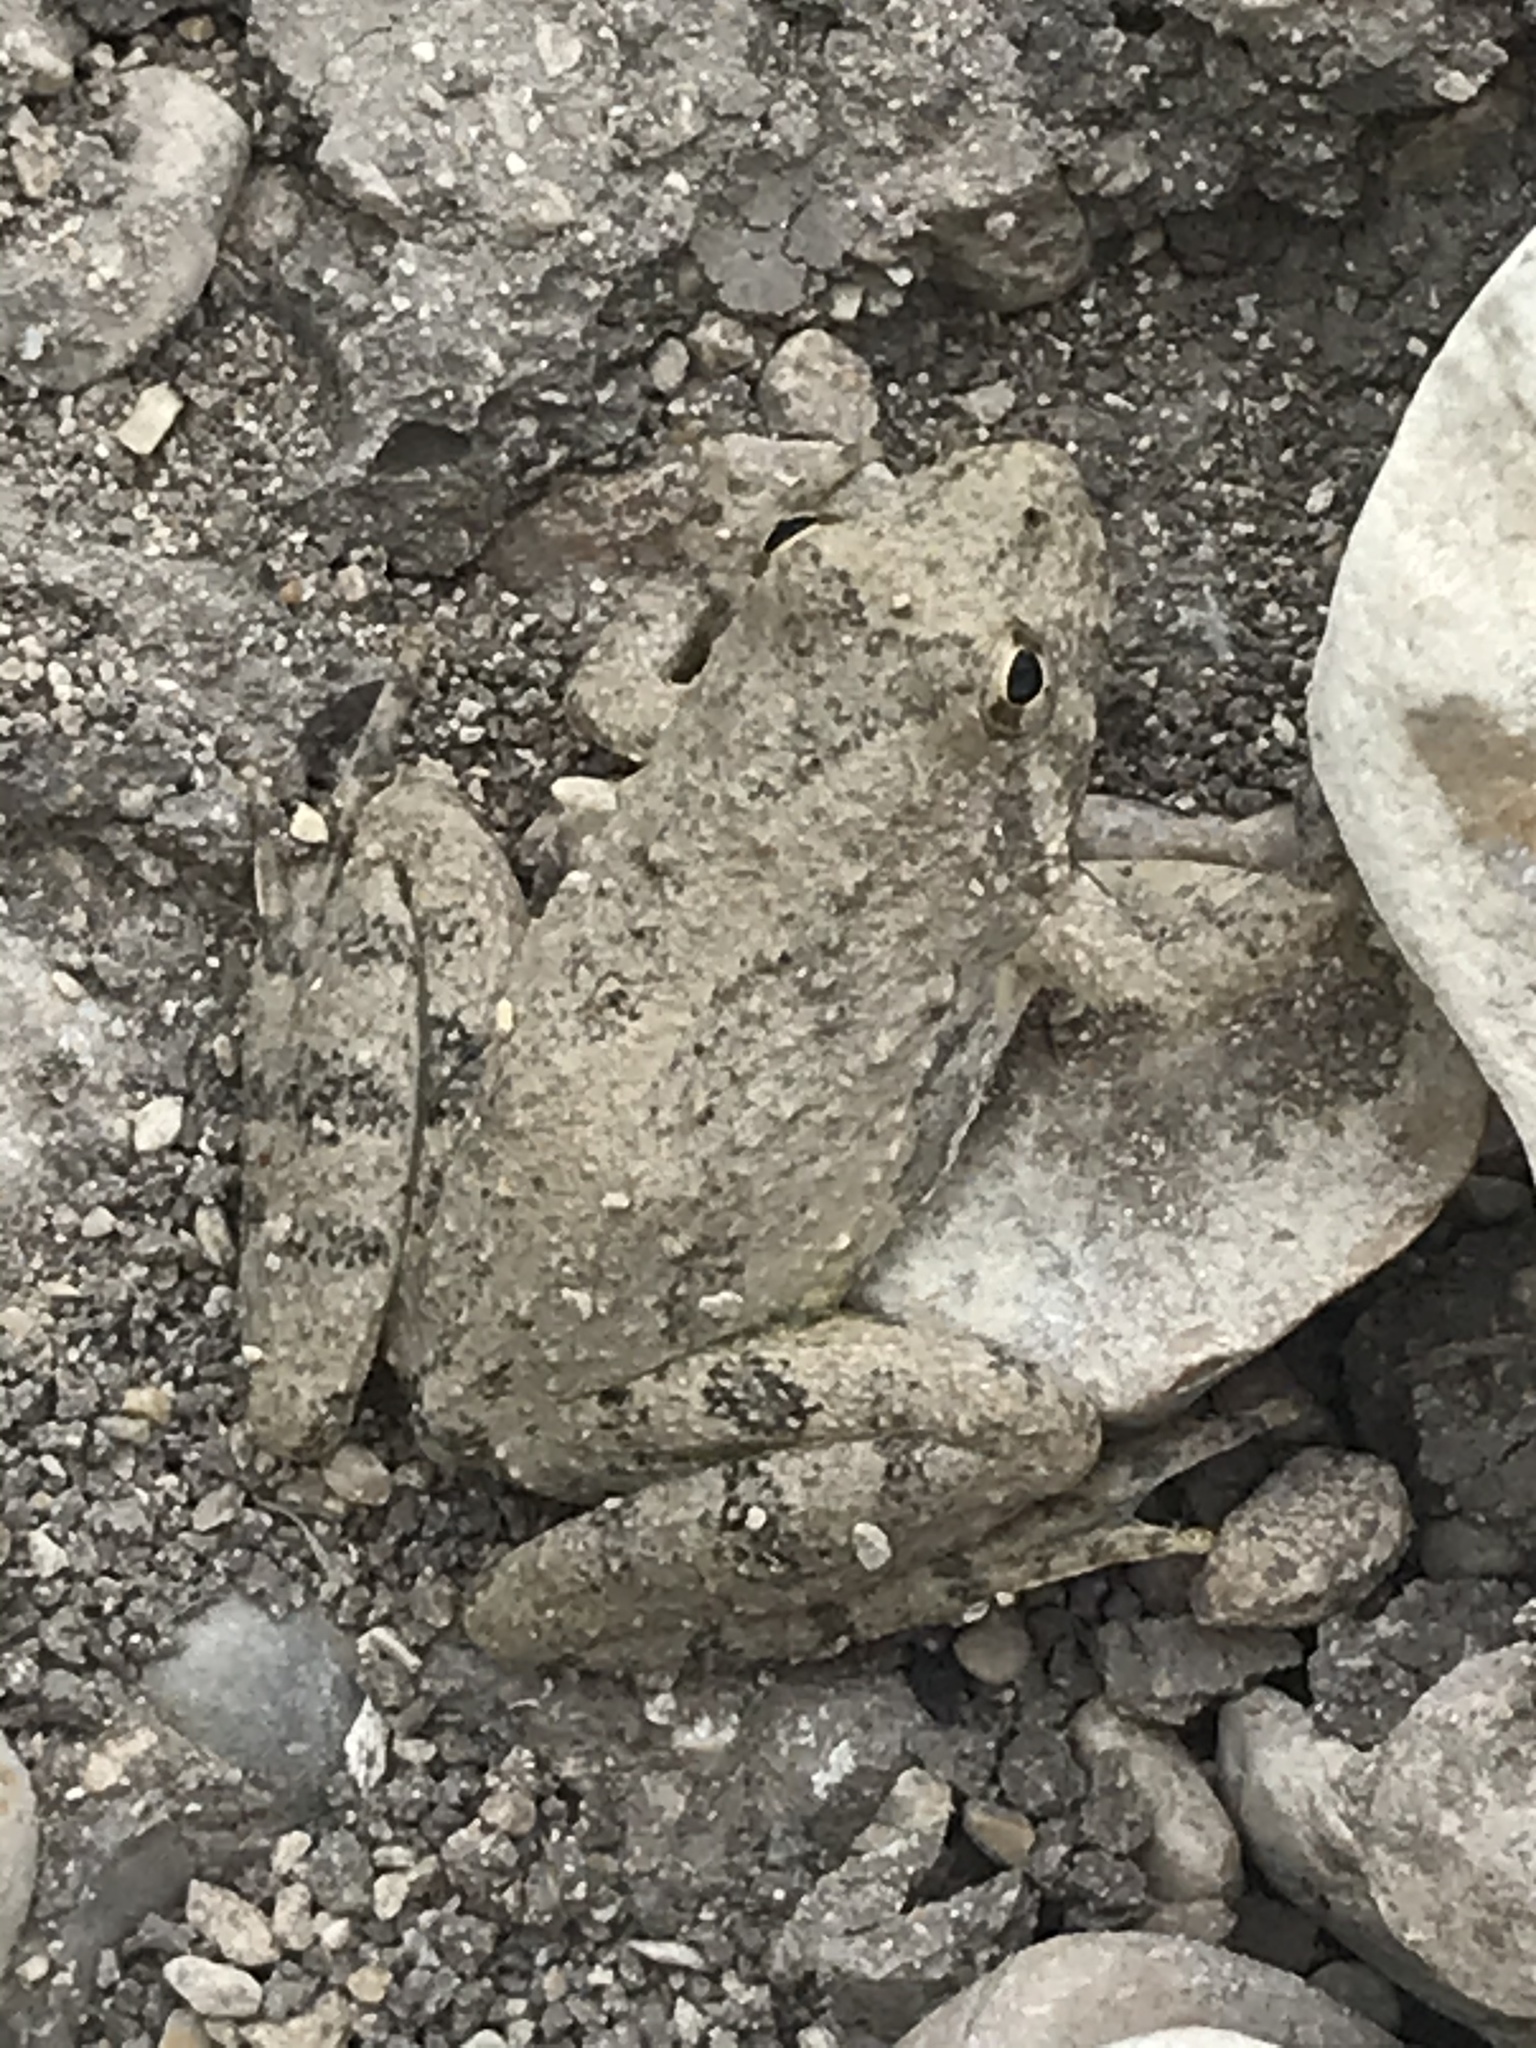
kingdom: Animalia
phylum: Chordata
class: Amphibia
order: Anura
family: Hylidae
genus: Acris
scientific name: Acris blanchardi
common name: Blanchard's cricket frog
